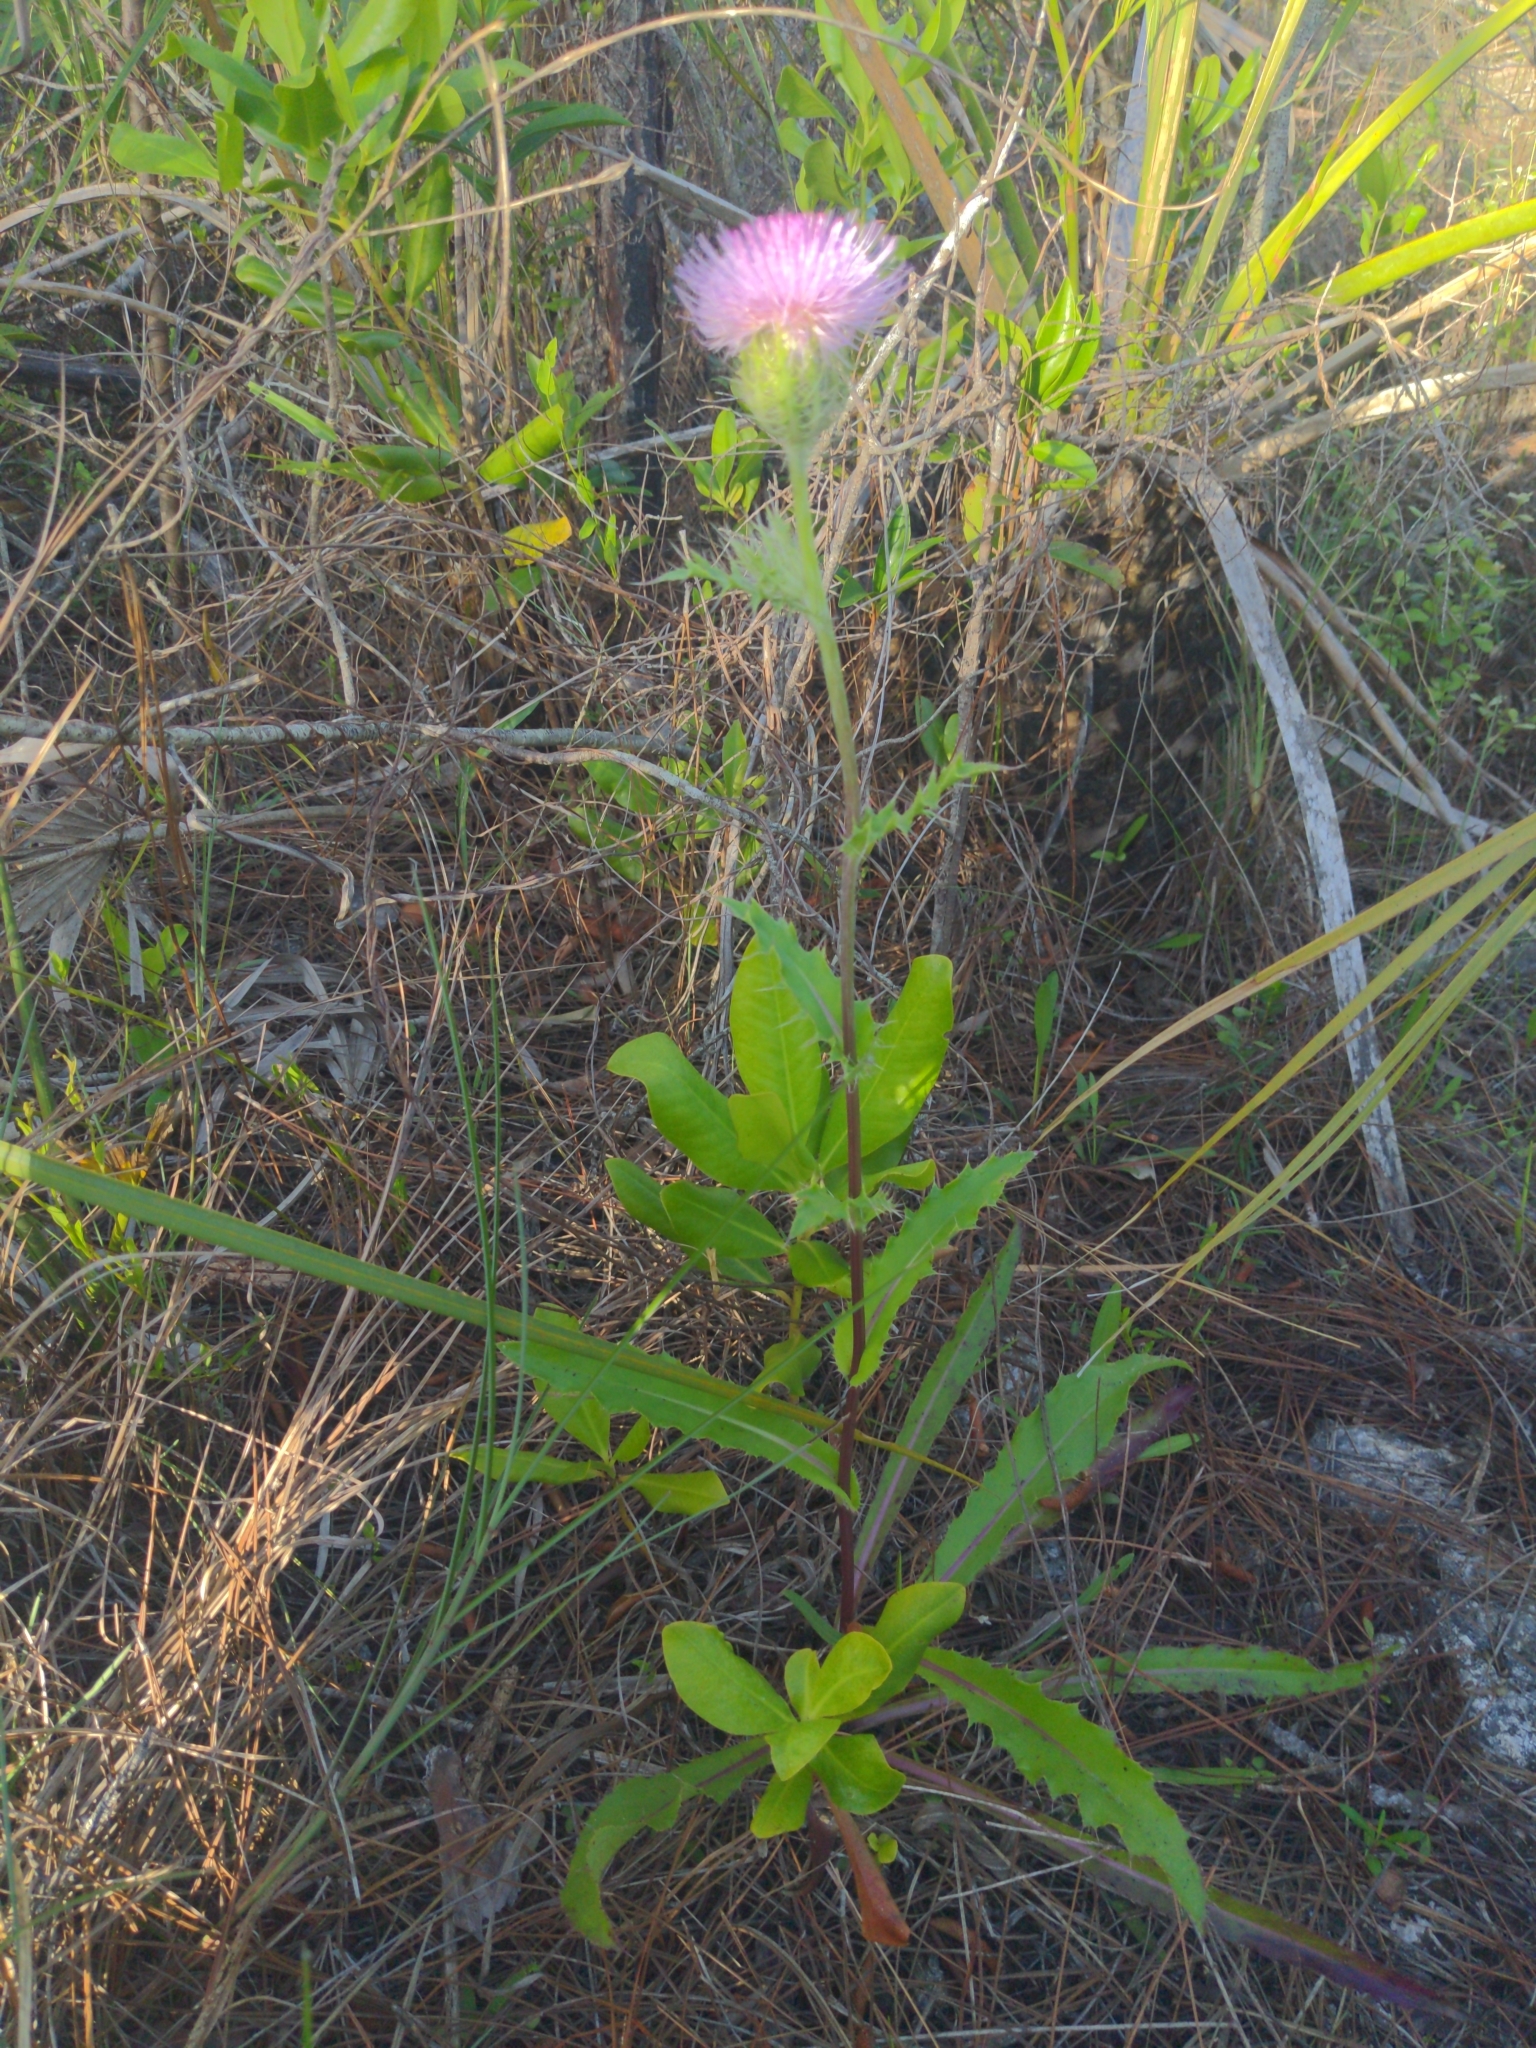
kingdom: Plantae
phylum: Tracheophyta
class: Magnoliopsida
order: Asterales
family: Asteraceae
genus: Cirsium
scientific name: Cirsium horridulum
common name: Bristly thistle
